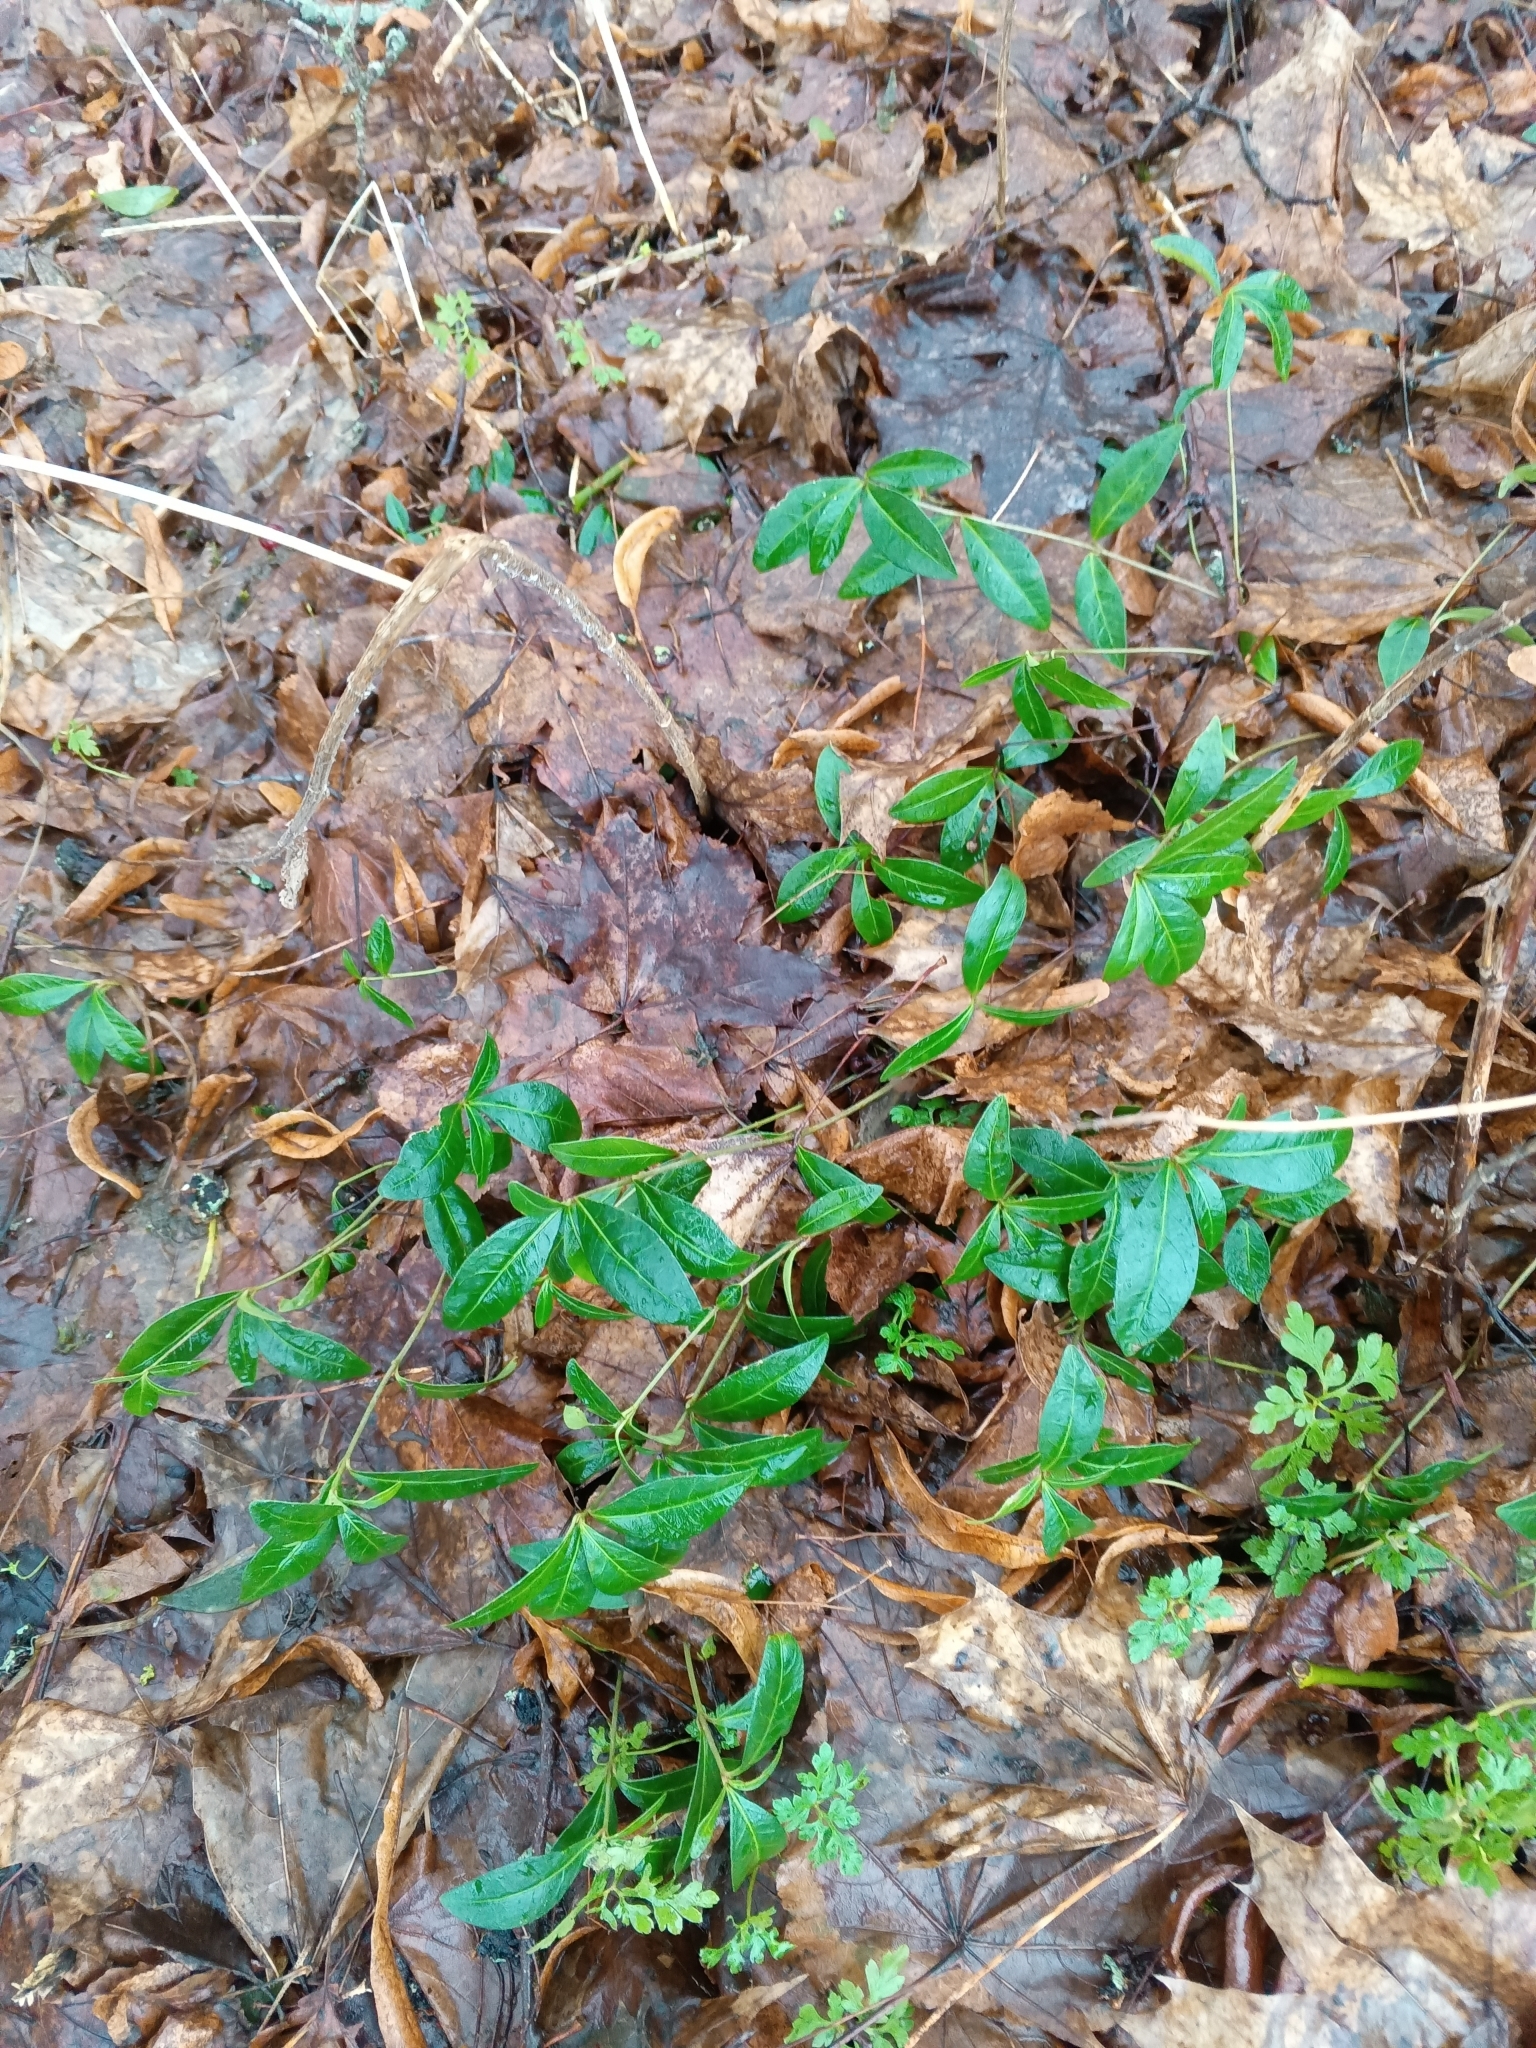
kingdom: Plantae
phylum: Tracheophyta
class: Magnoliopsida
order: Gentianales
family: Apocynaceae
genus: Vinca
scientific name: Vinca minor
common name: Lesser periwinkle
